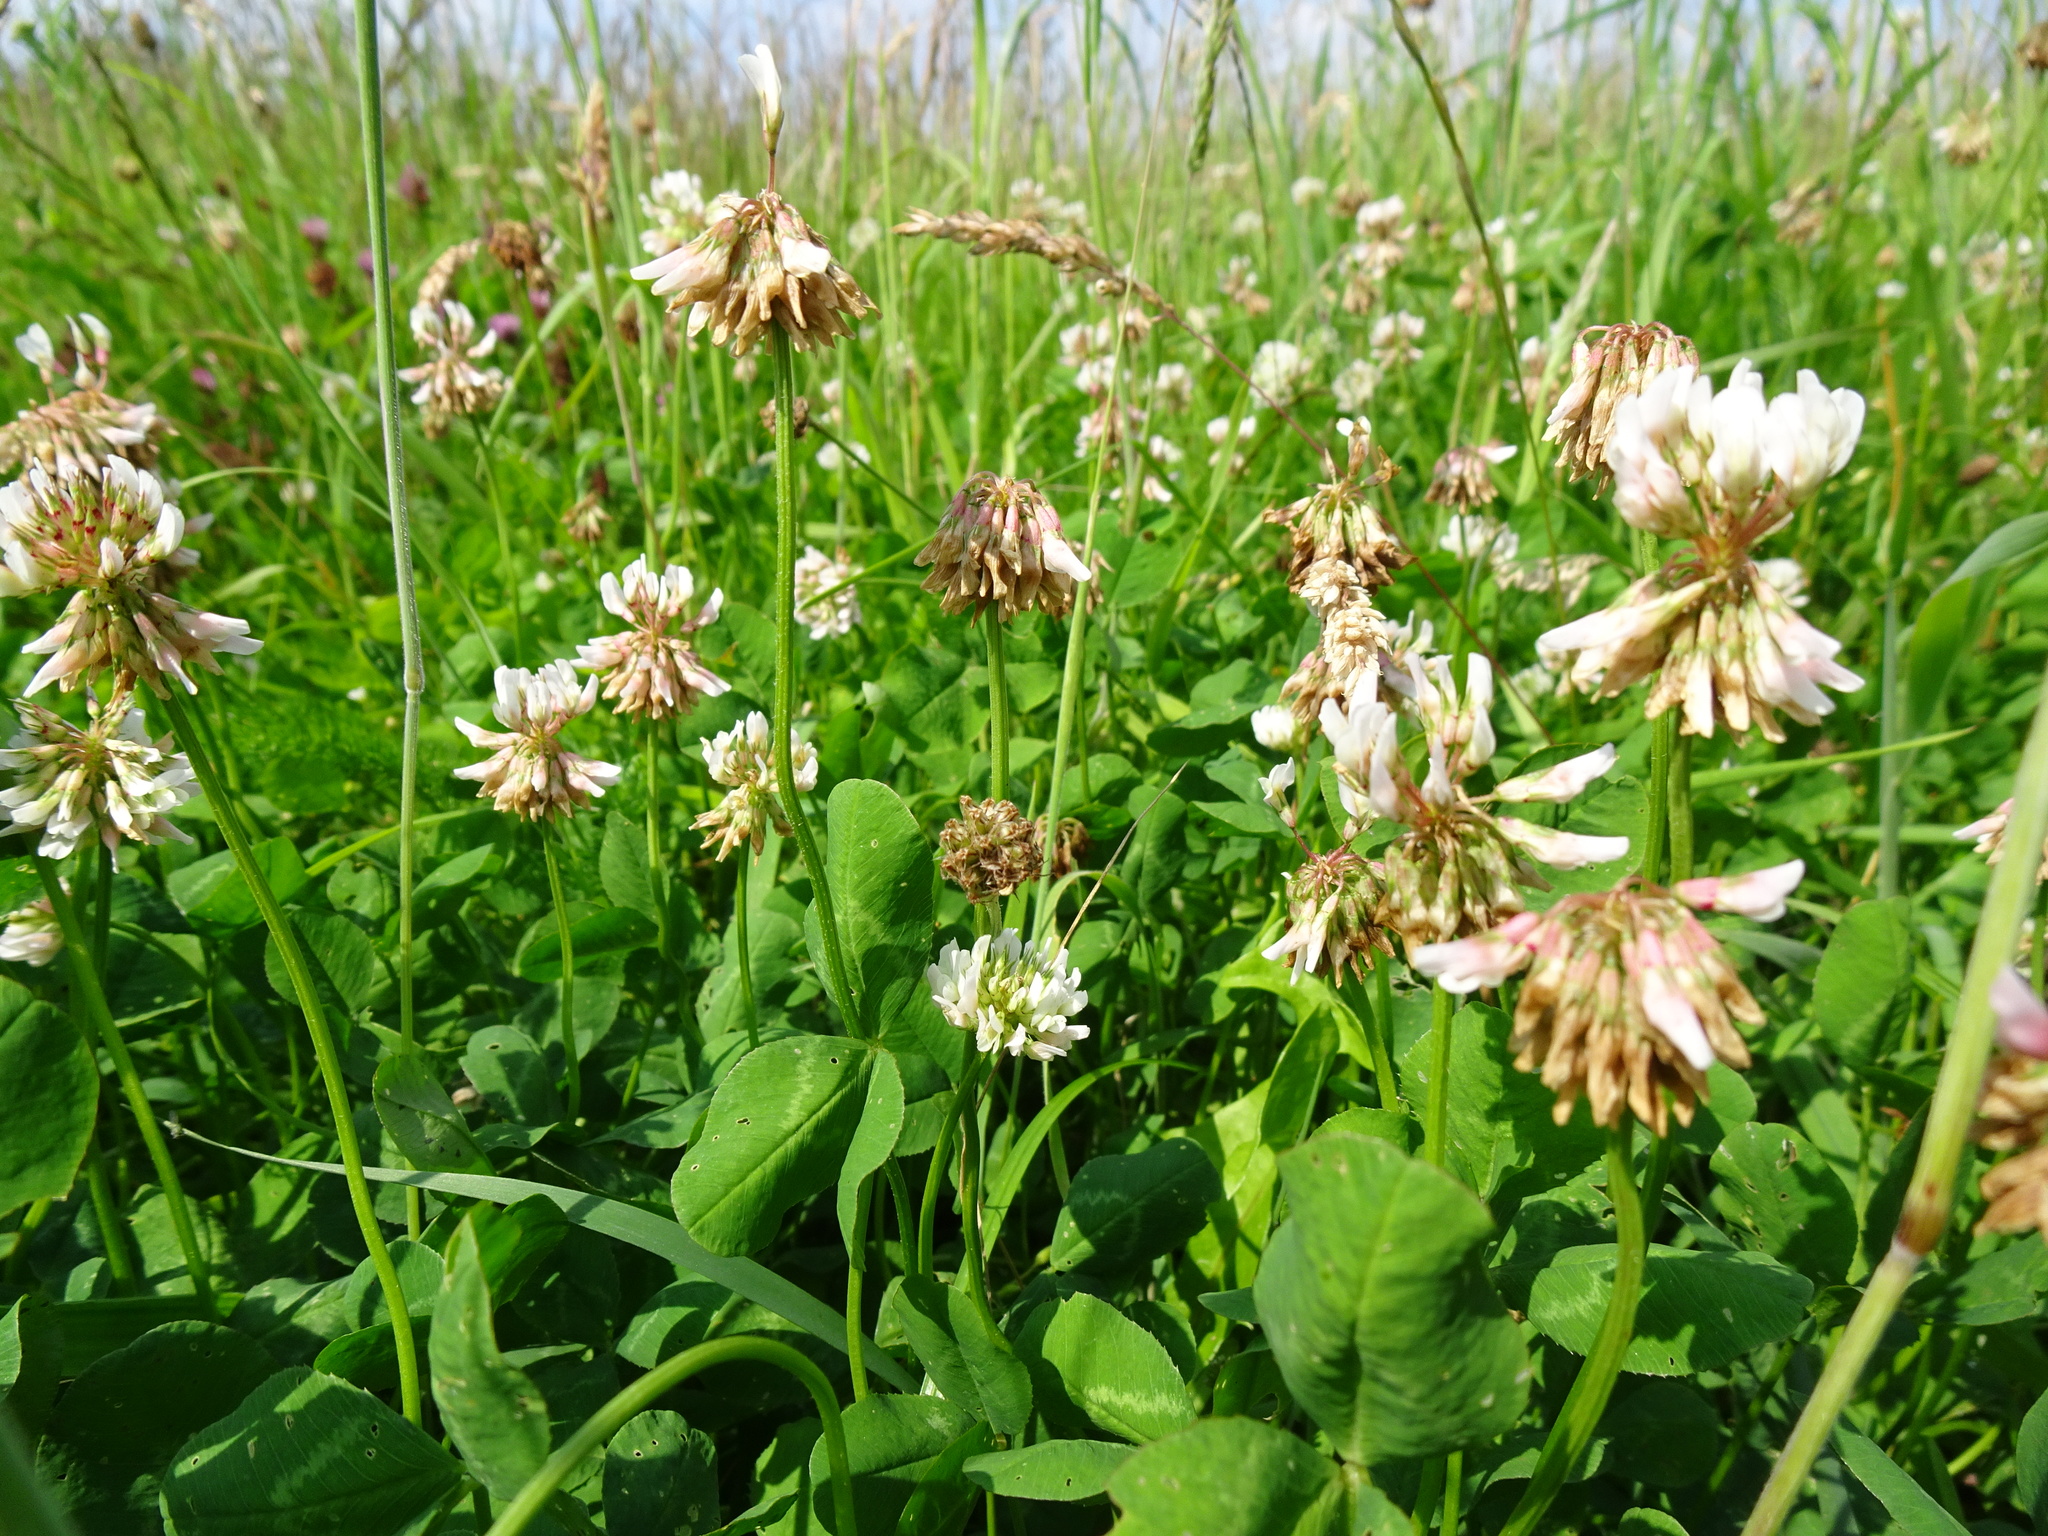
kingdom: Plantae
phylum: Tracheophyta
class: Magnoliopsida
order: Fabales
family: Fabaceae
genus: Trifolium
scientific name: Trifolium repens
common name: White clover
